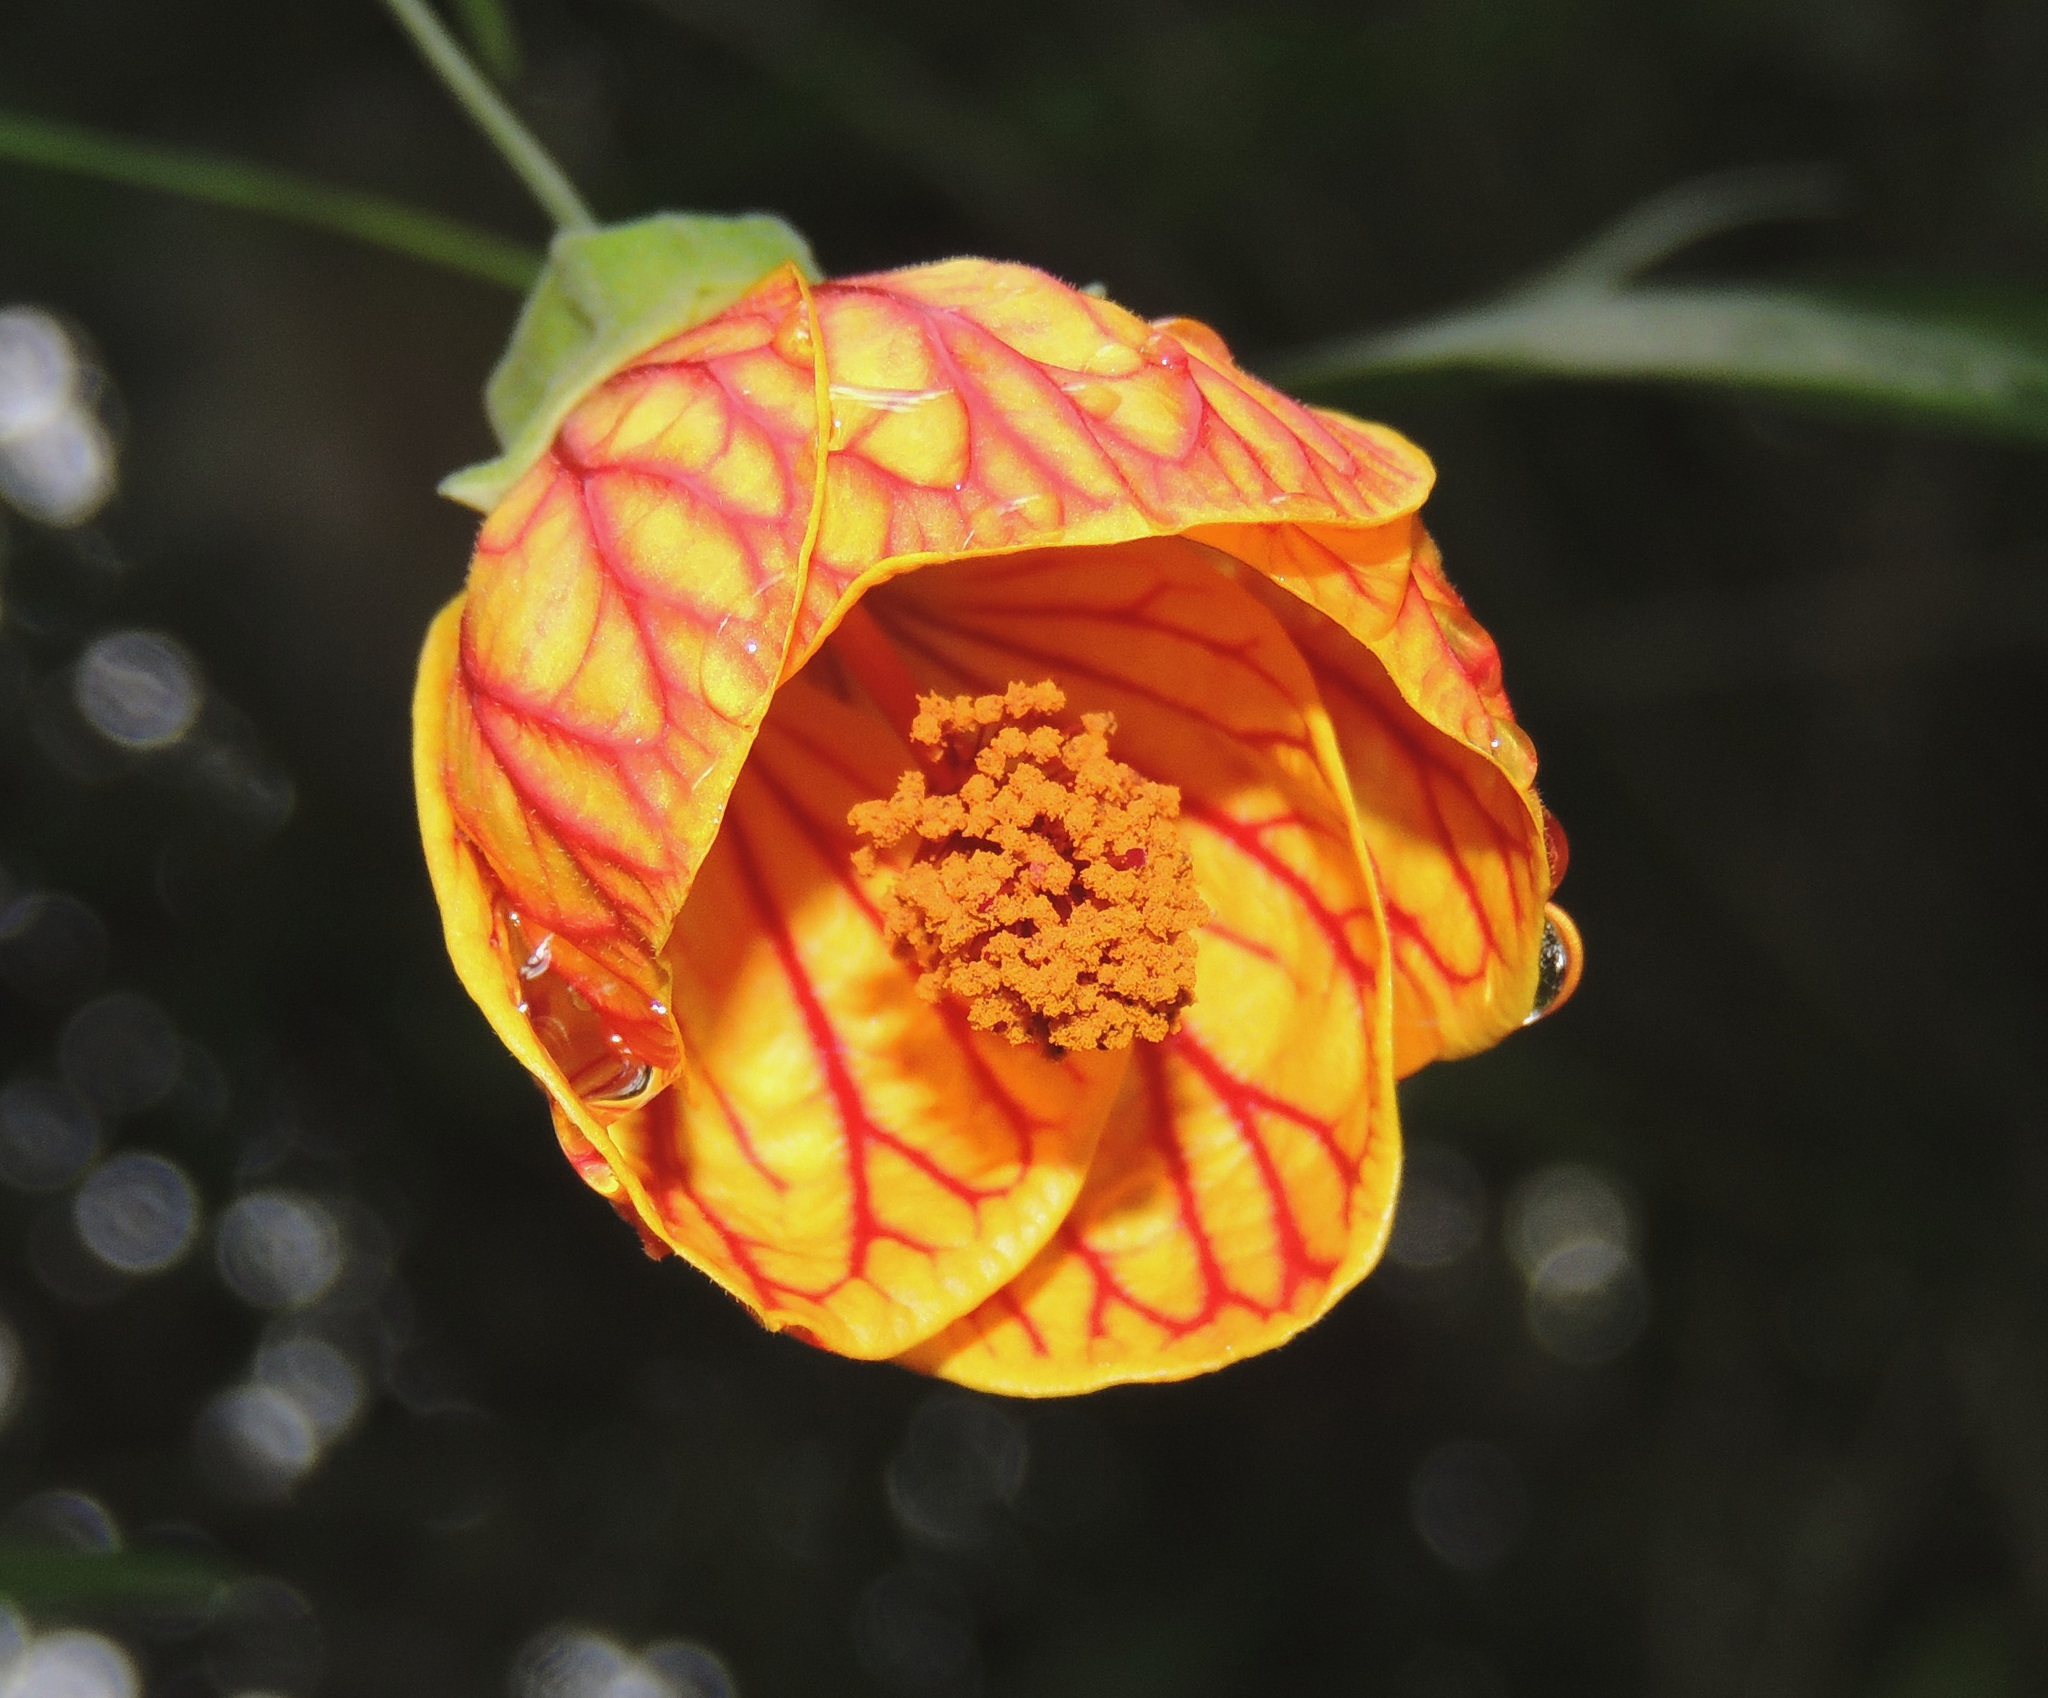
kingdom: Plantae
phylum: Tracheophyta
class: Magnoliopsida
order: Malvales
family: Malvaceae
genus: Callianthe
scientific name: Callianthe picta
